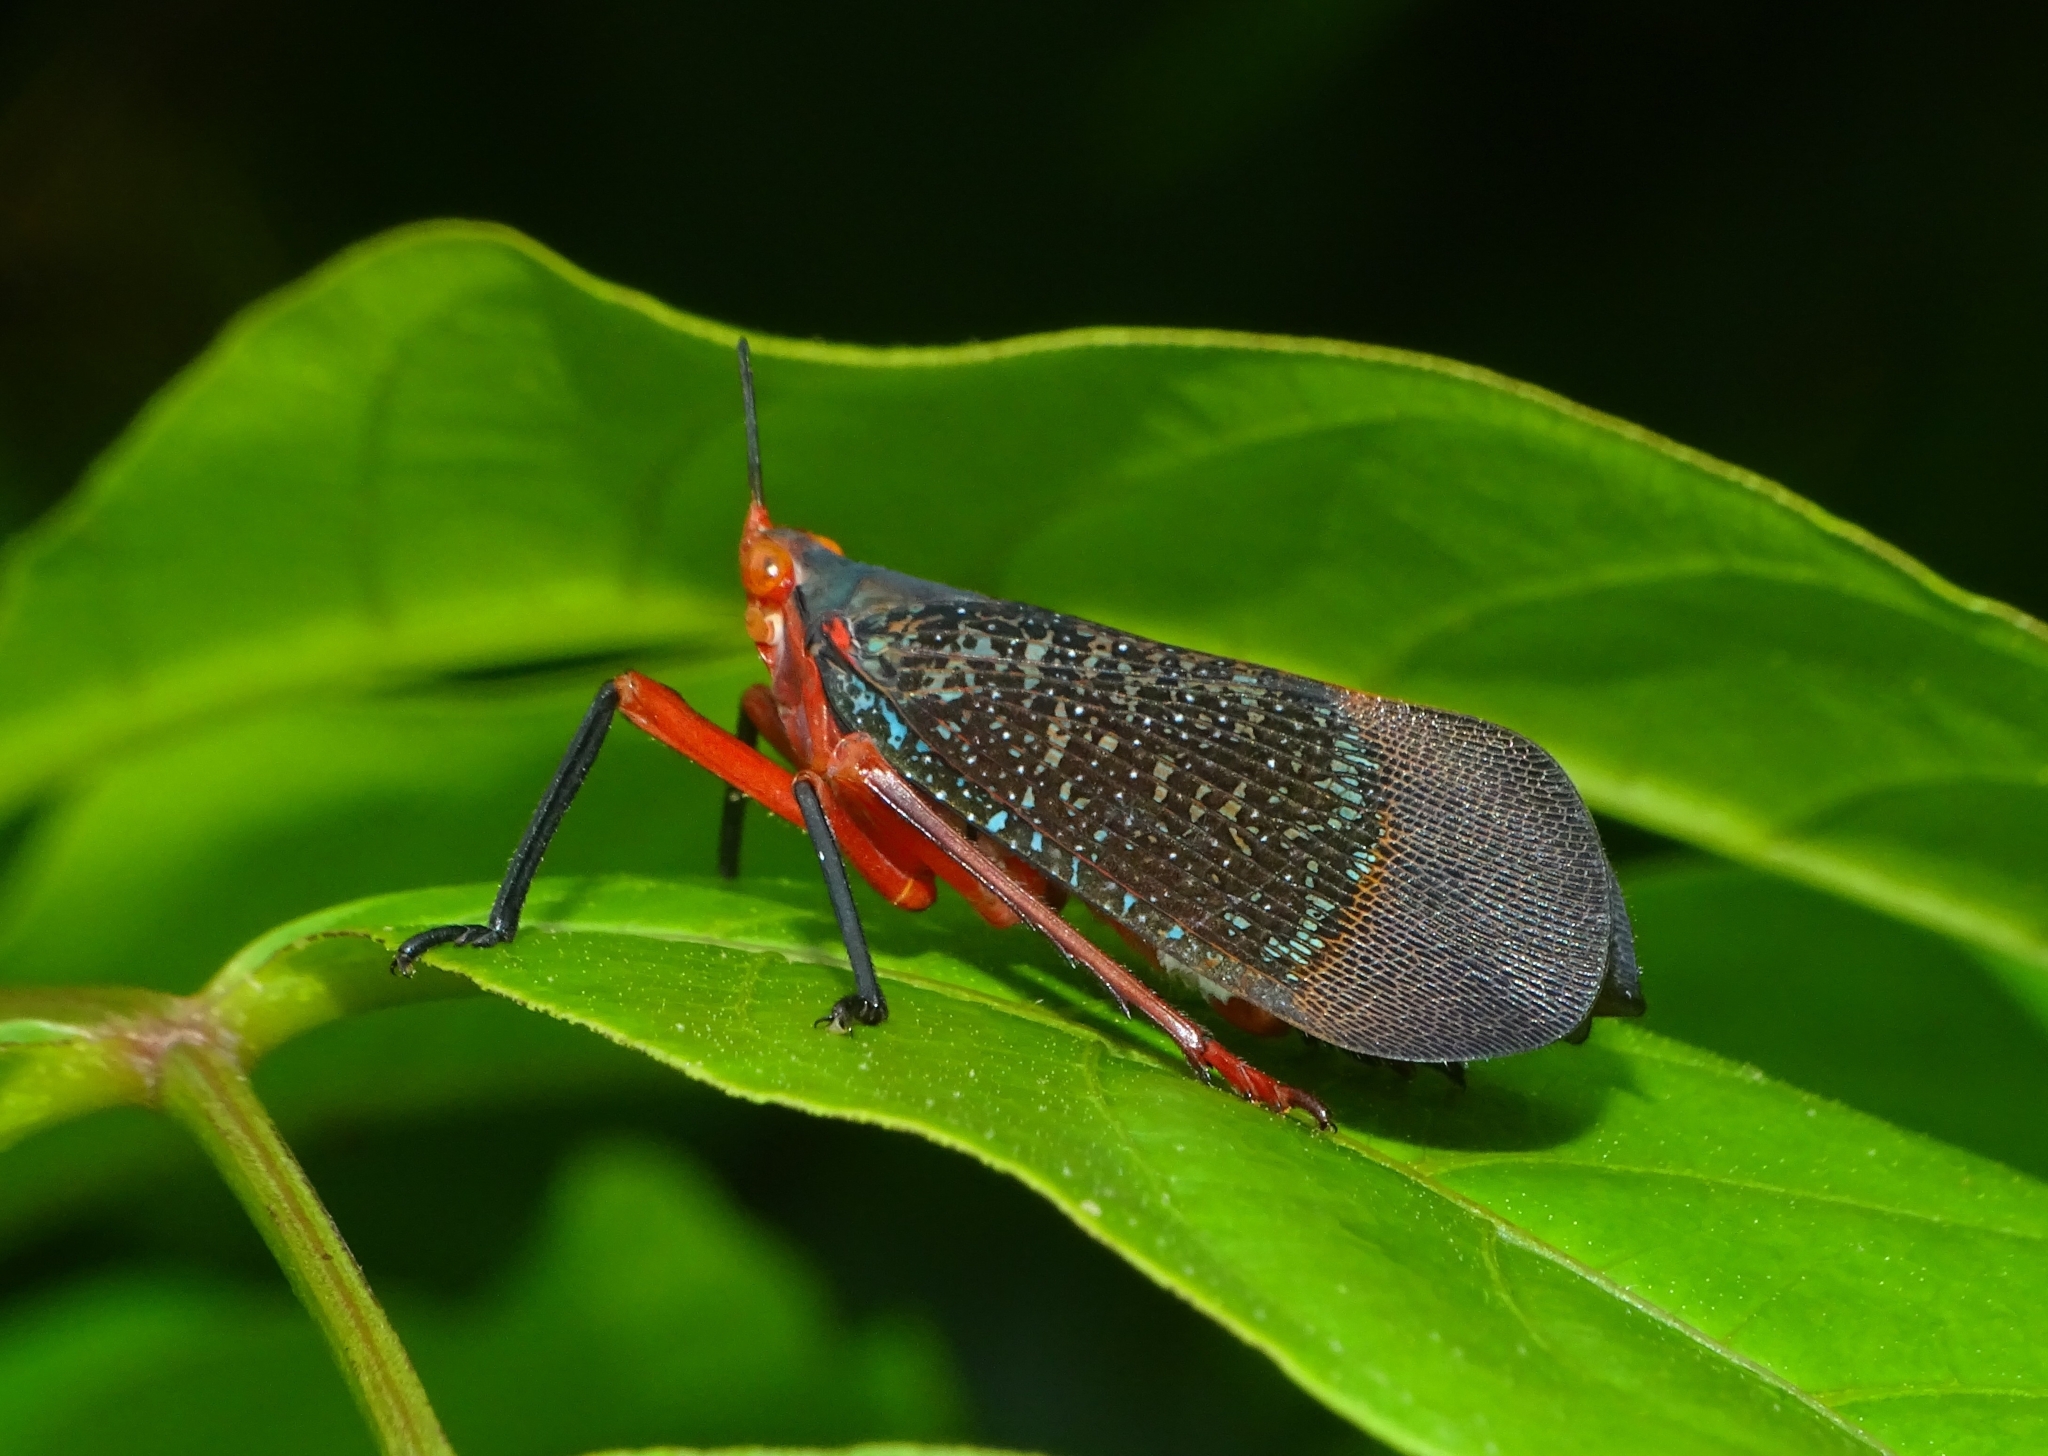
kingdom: Animalia
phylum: Arthropoda
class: Insecta
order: Hemiptera
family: Fulgoridae
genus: Kalidasa
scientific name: Kalidasa lanata
